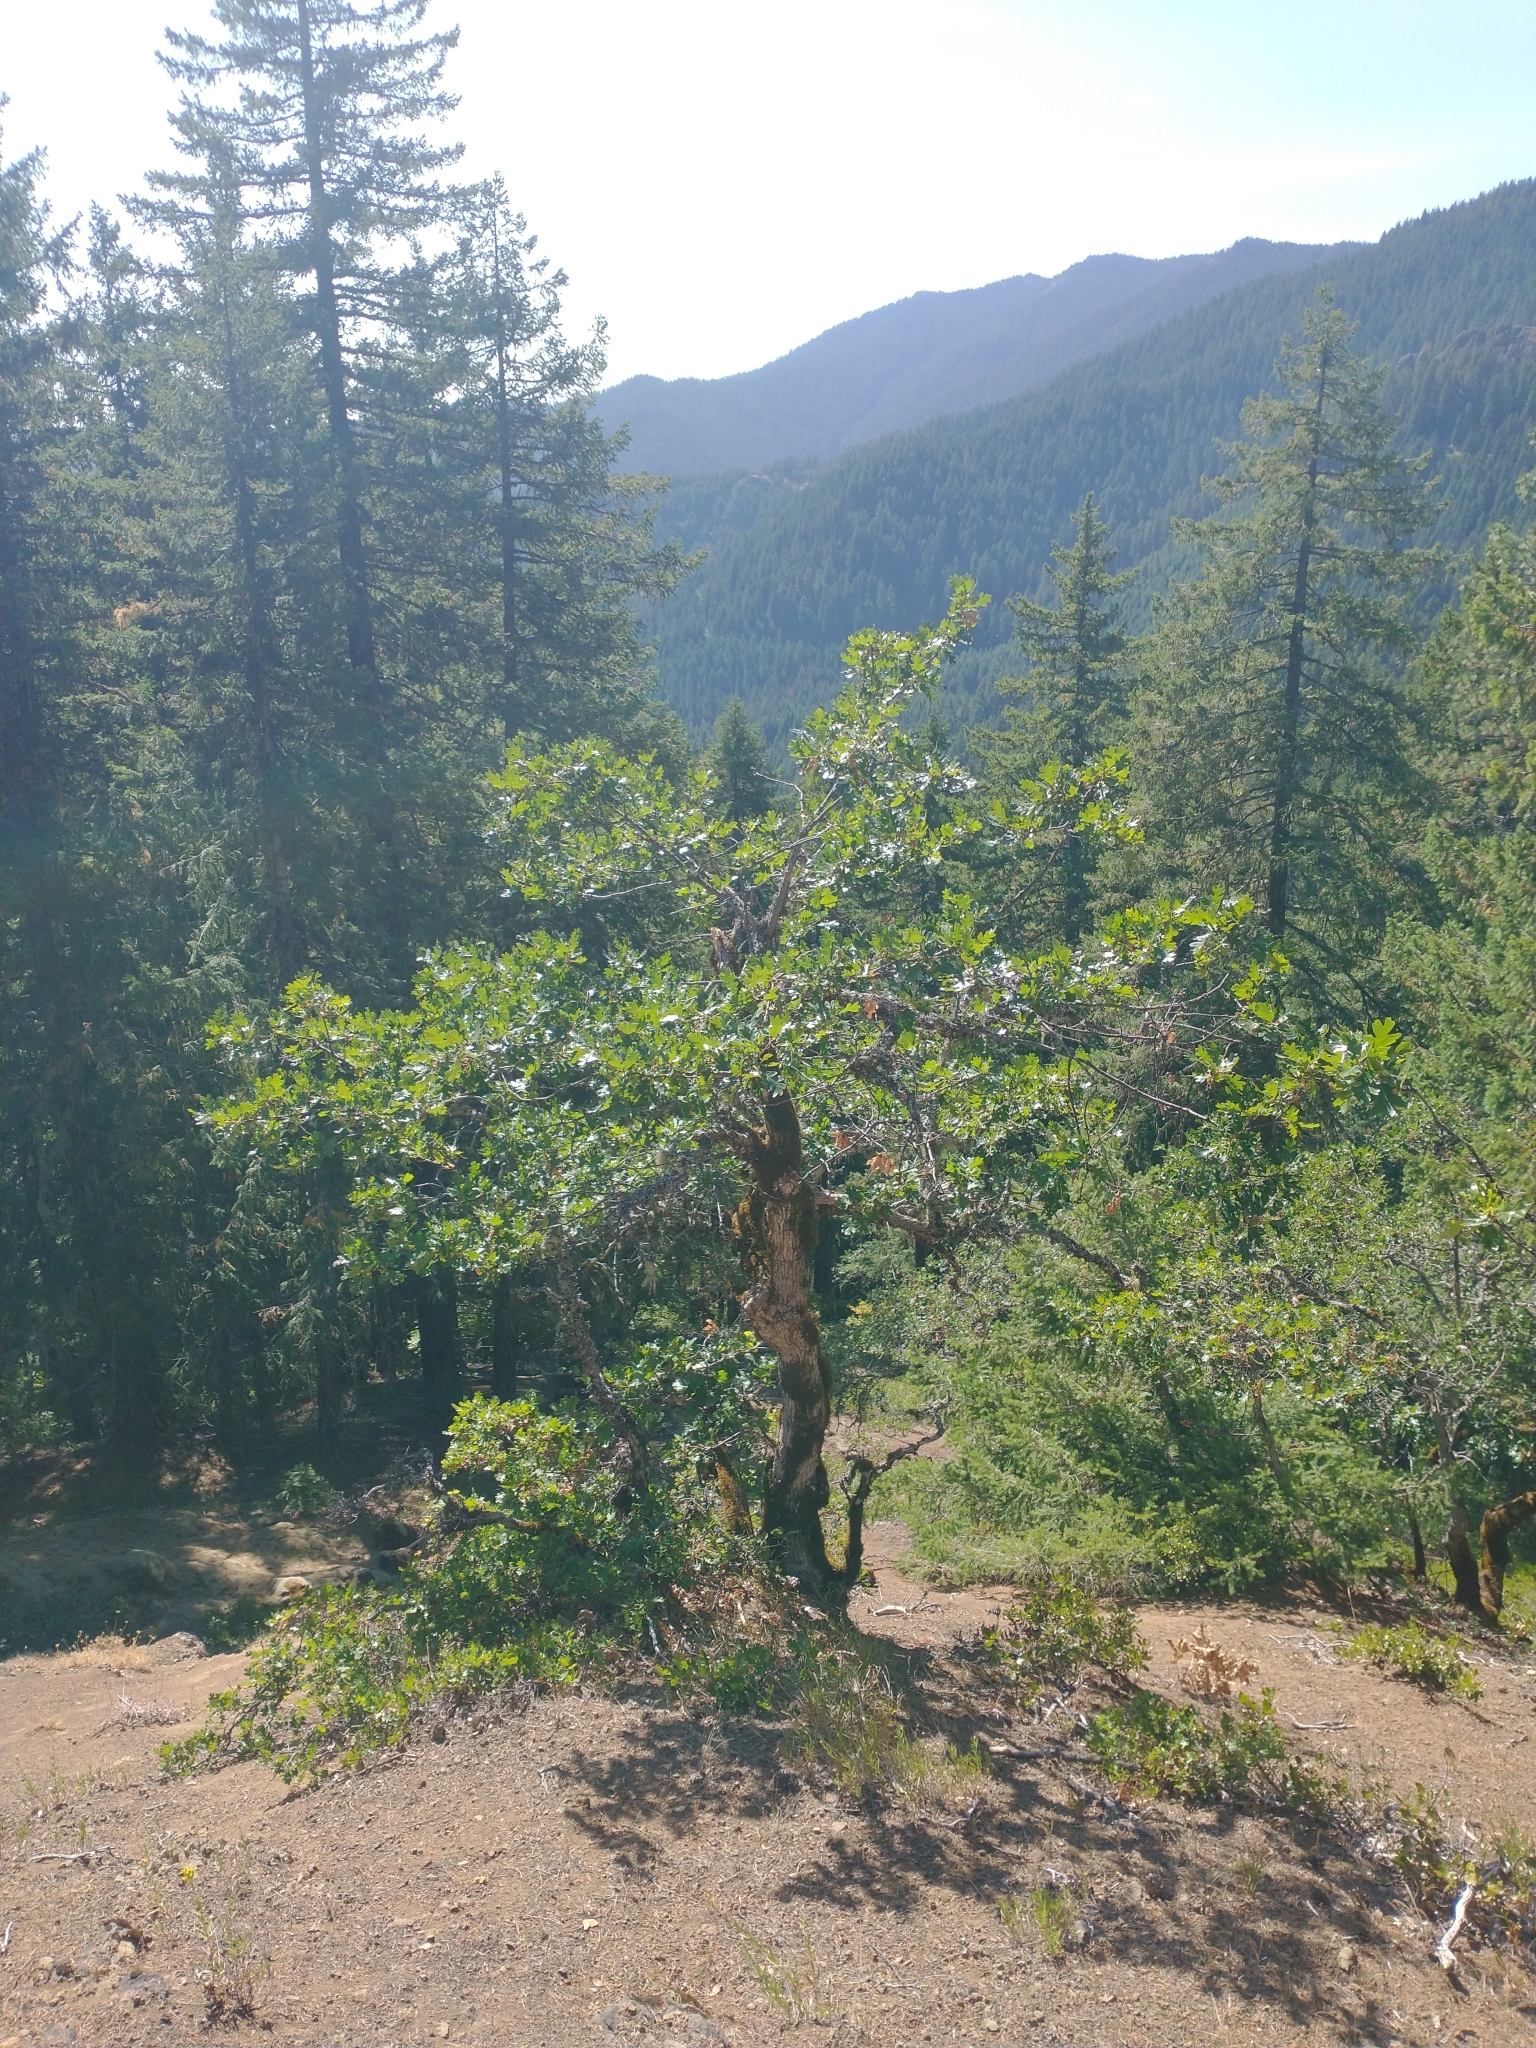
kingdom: Plantae
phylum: Tracheophyta
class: Magnoliopsida
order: Fagales
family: Fagaceae
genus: Quercus
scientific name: Quercus garryana
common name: Garry oak
